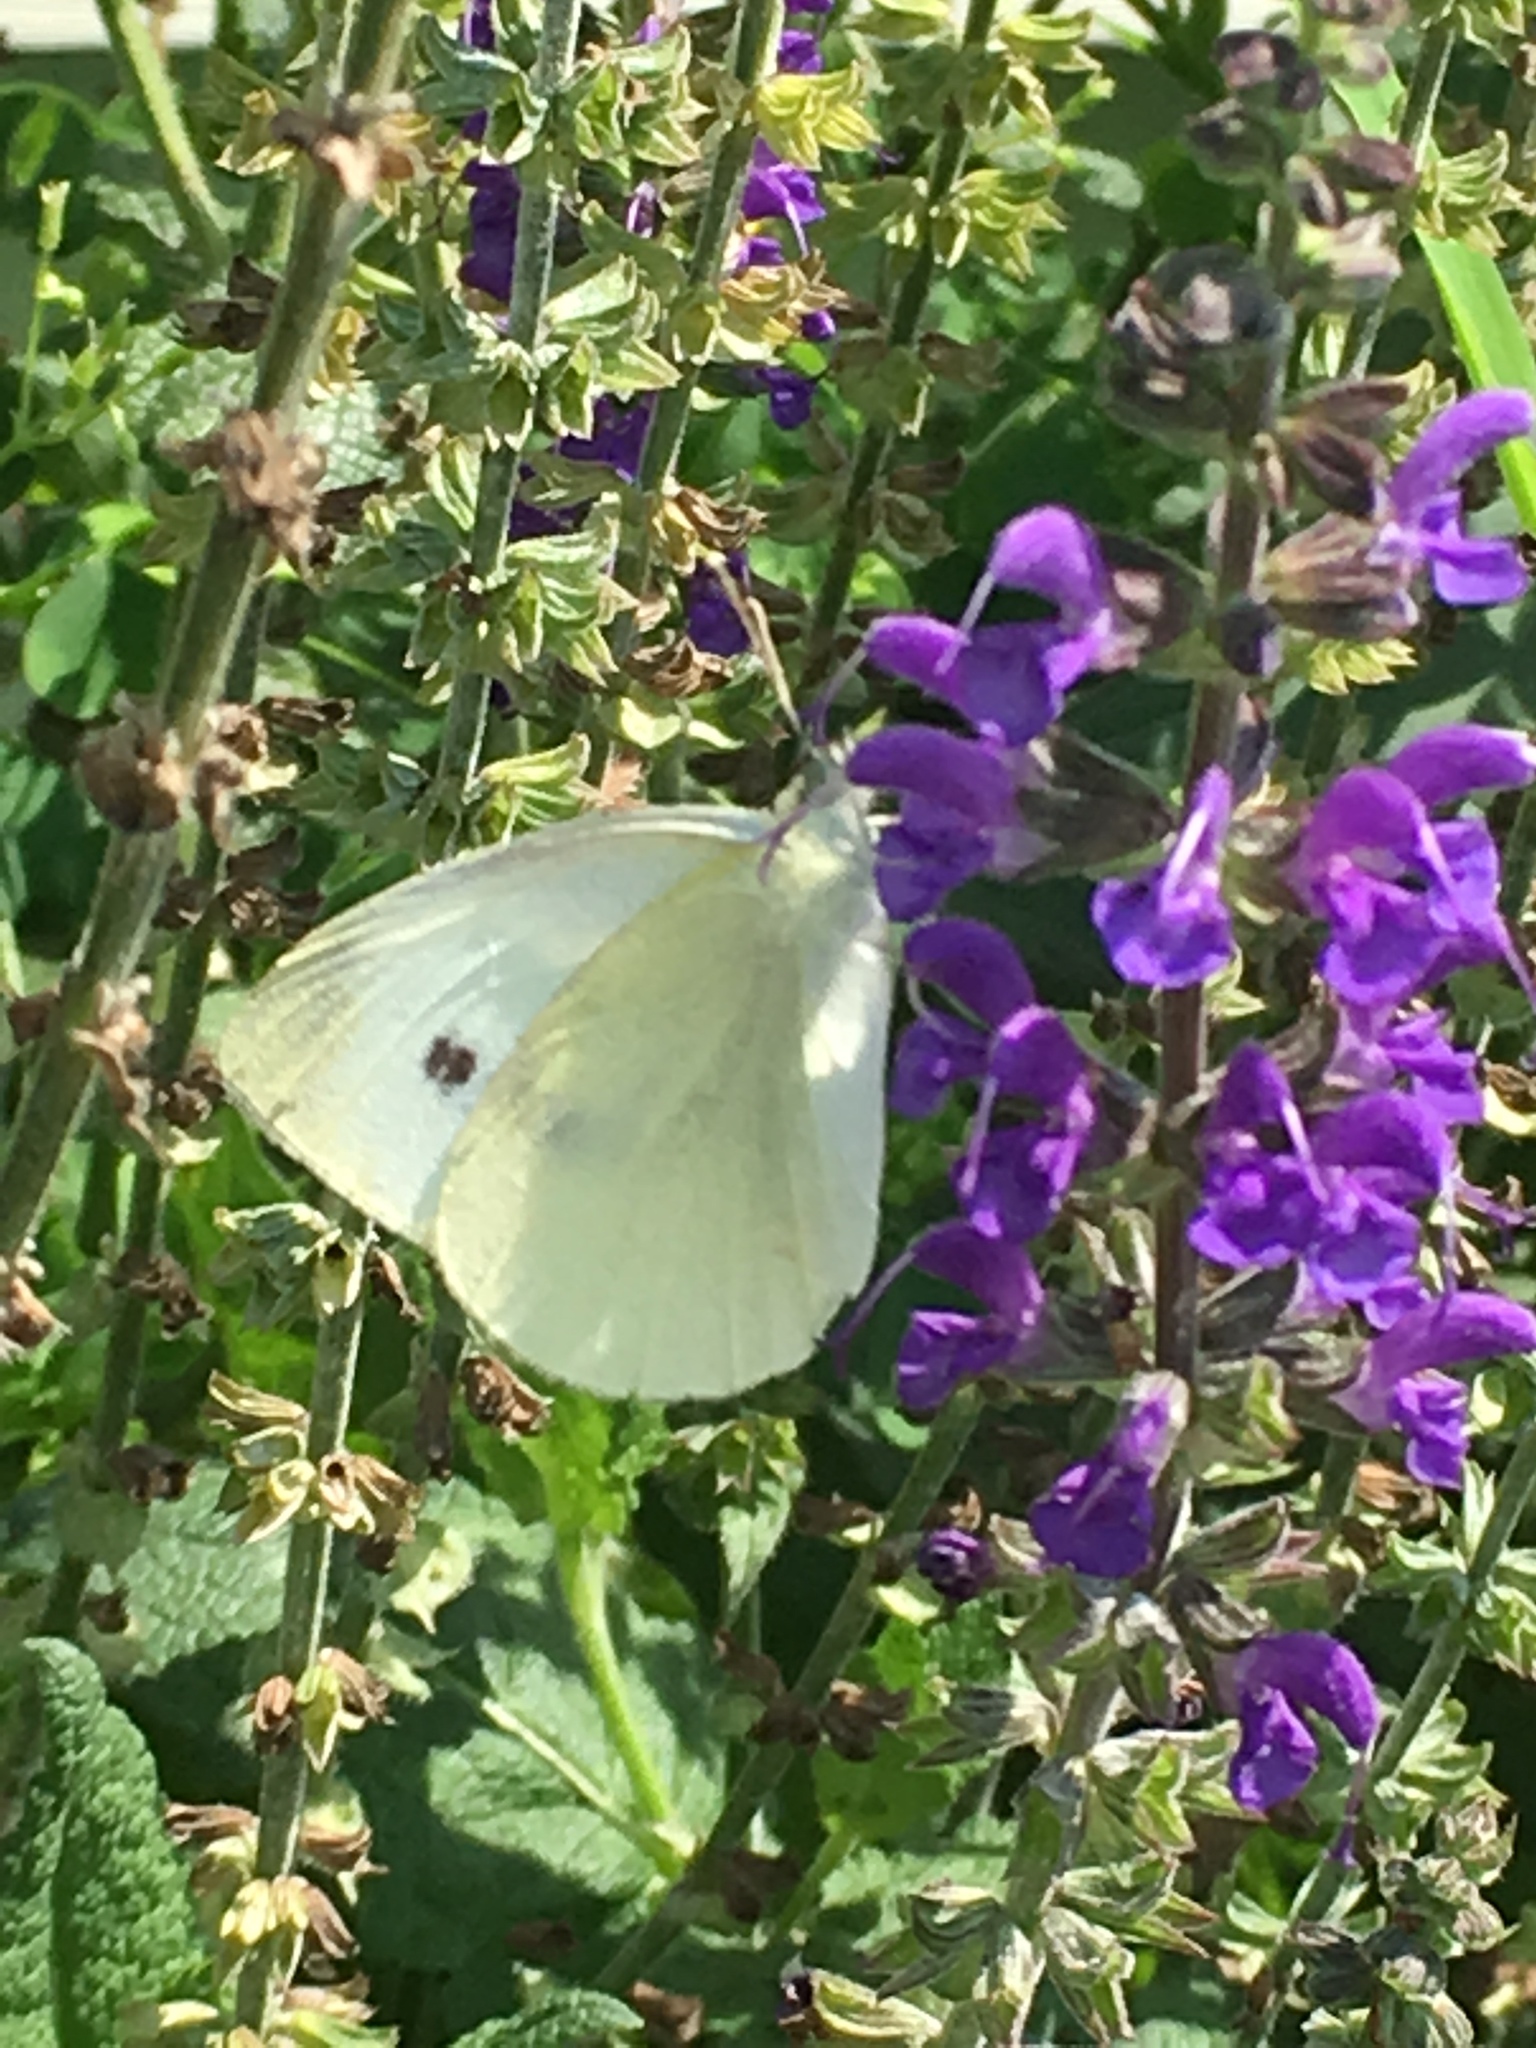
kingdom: Animalia
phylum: Arthropoda
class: Insecta
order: Lepidoptera
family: Pieridae
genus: Pieris
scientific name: Pieris rapae
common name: Small white
